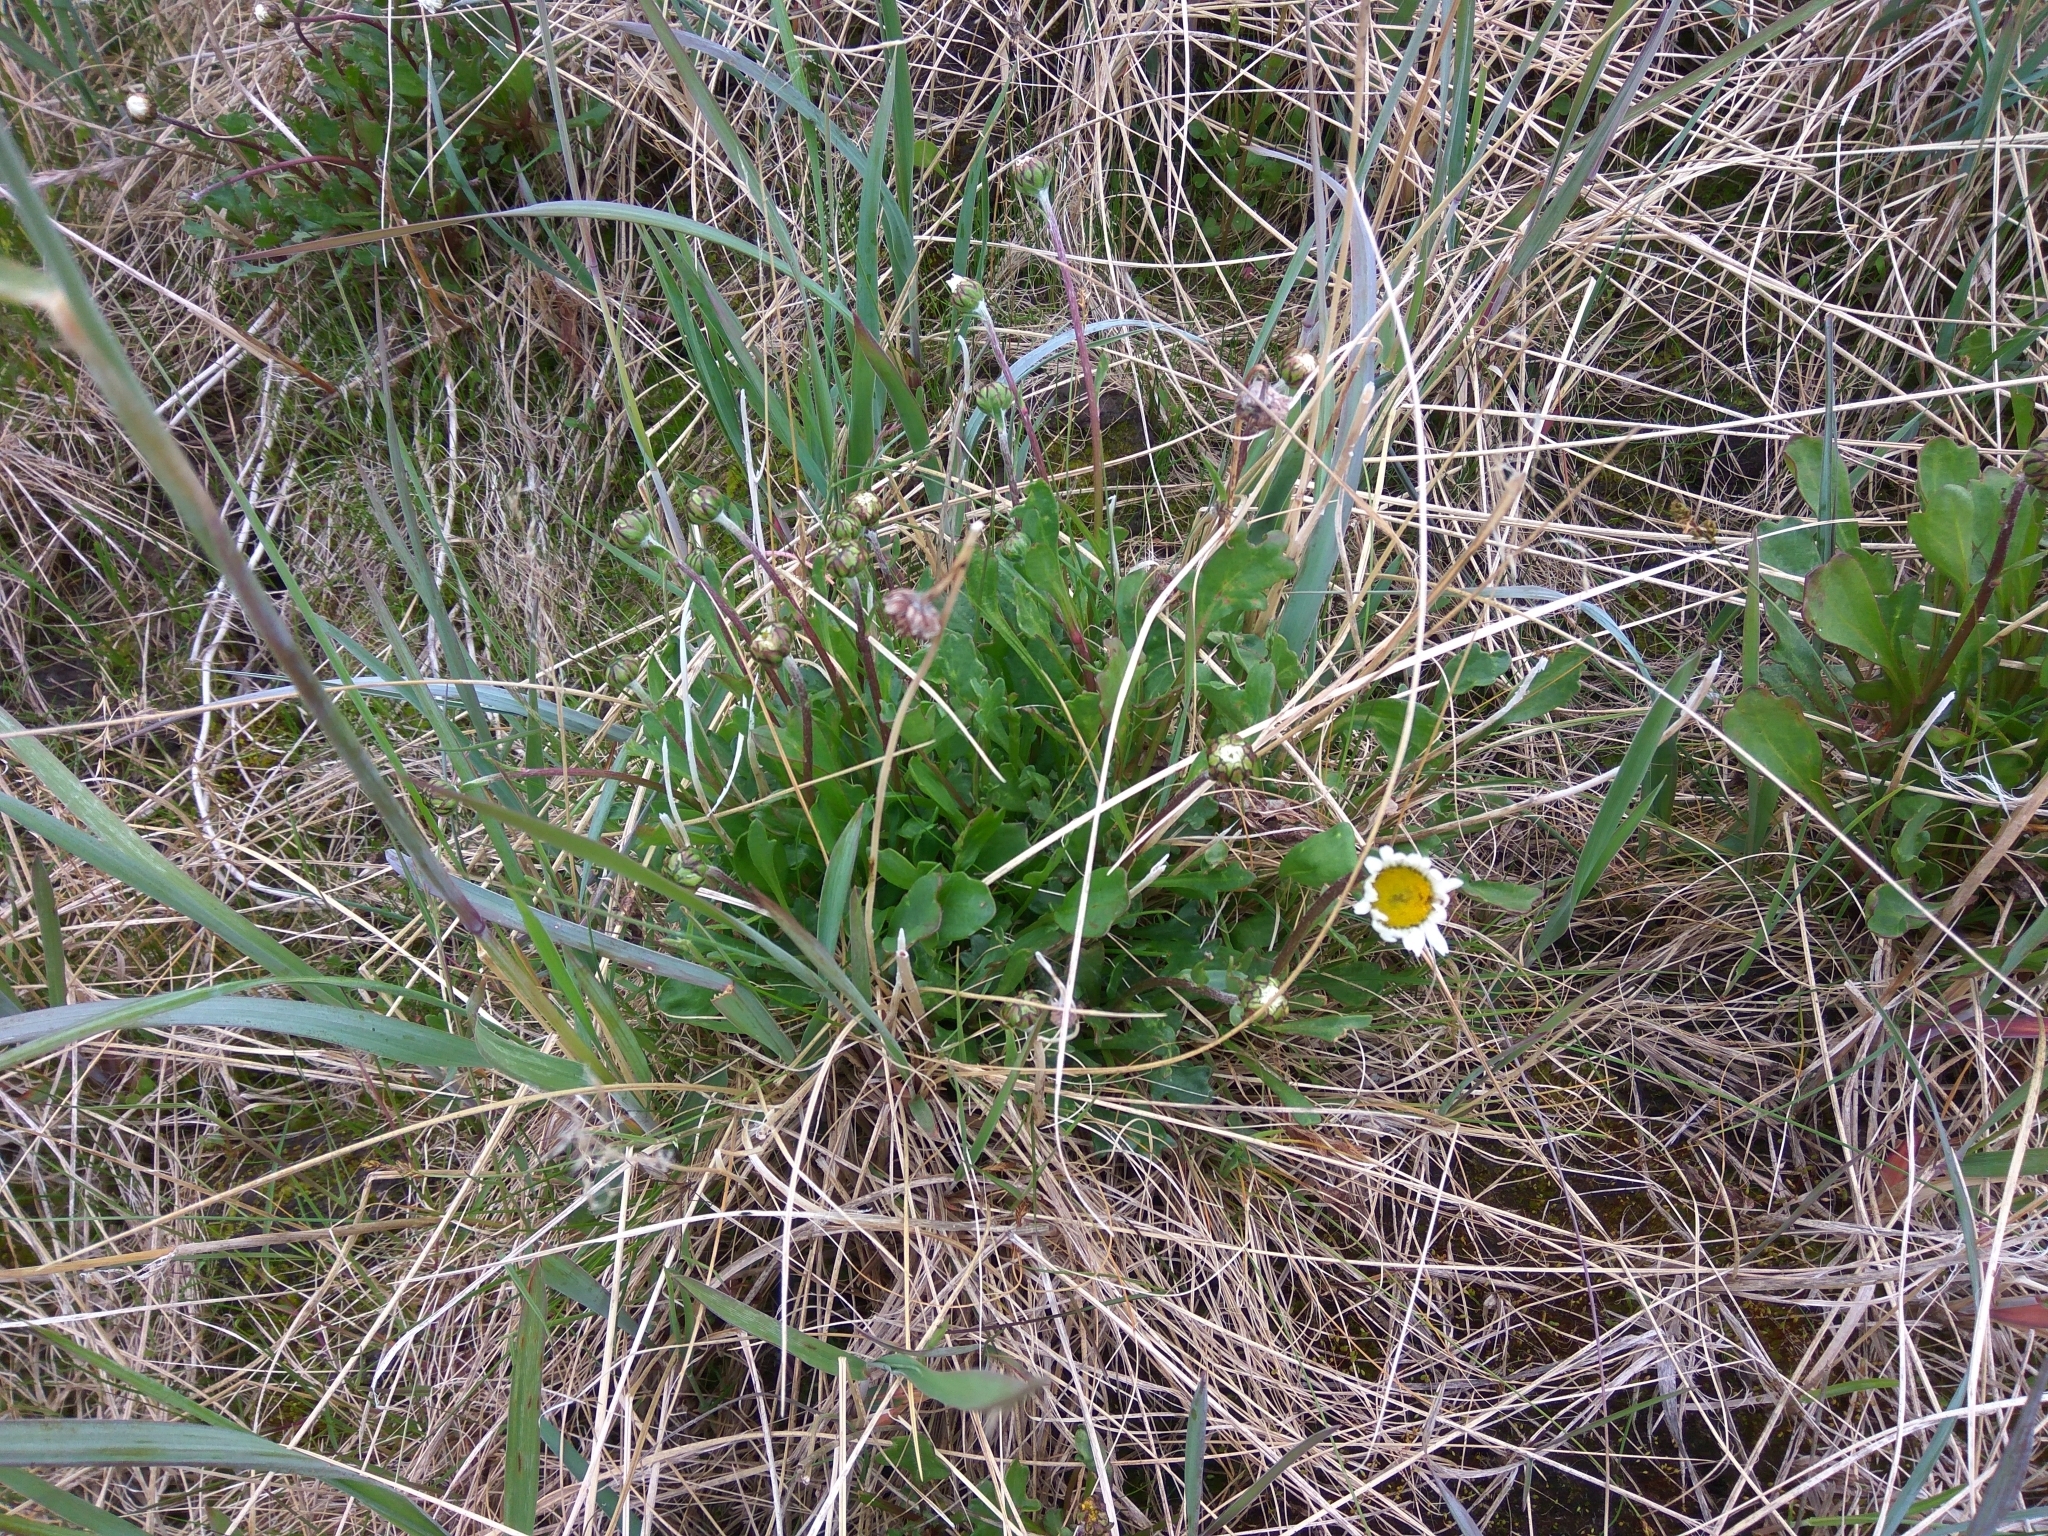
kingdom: Plantae
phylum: Tracheophyta
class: Magnoliopsida
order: Asterales
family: Asteraceae
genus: Arctanthemum
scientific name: Arctanthemum arcticum
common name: Arctic daisy
